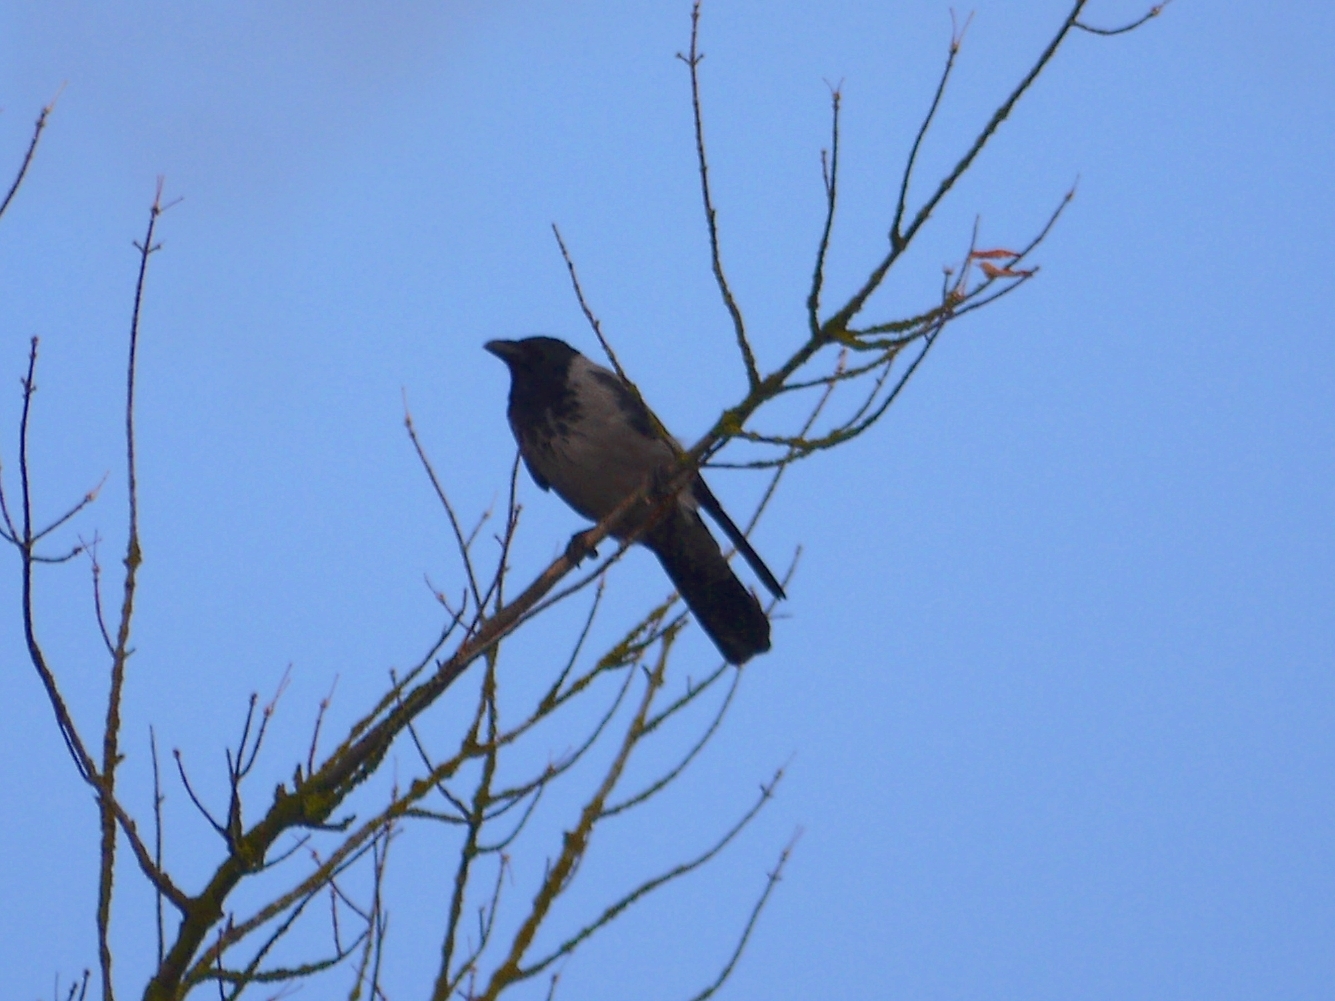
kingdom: Animalia
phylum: Chordata
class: Aves
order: Passeriformes
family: Corvidae
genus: Corvus
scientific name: Corvus cornix
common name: Hooded crow
